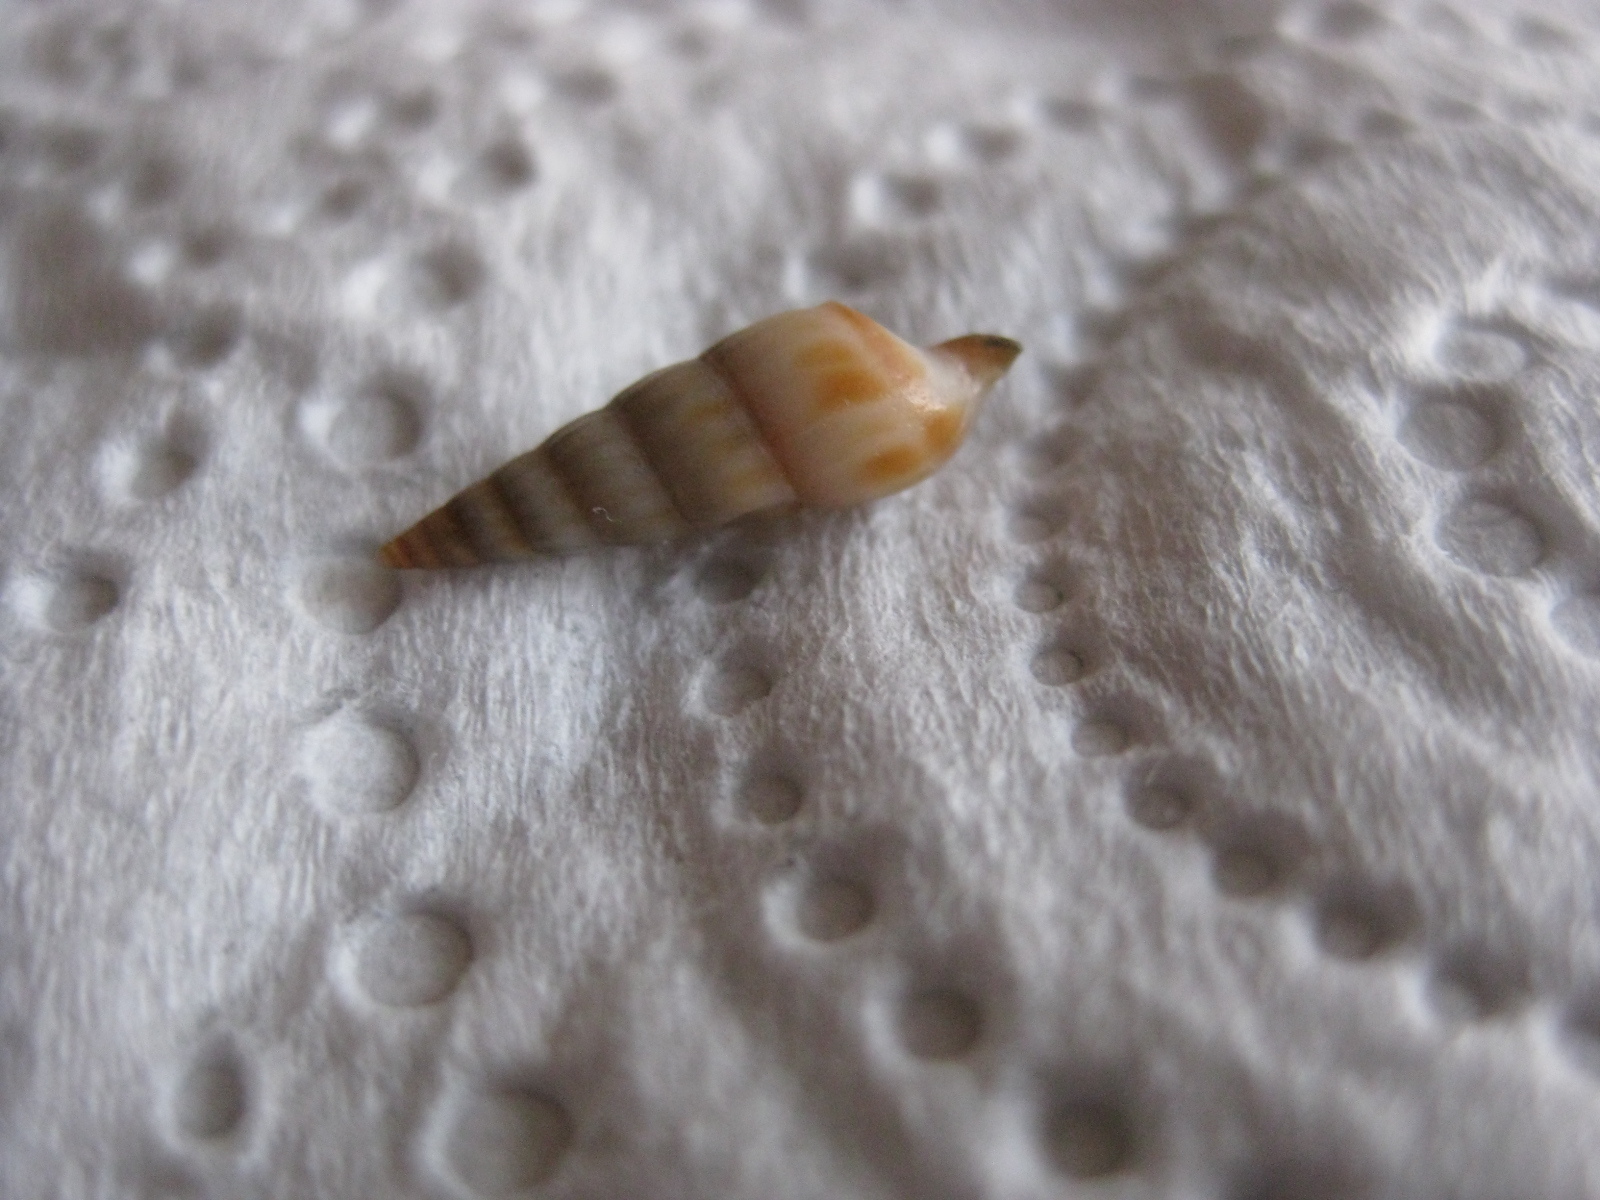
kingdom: Animalia
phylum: Mollusca
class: Gastropoda
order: Neogastropoda
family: Terebridae
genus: Duplicaria
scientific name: Duplicaria tristis
